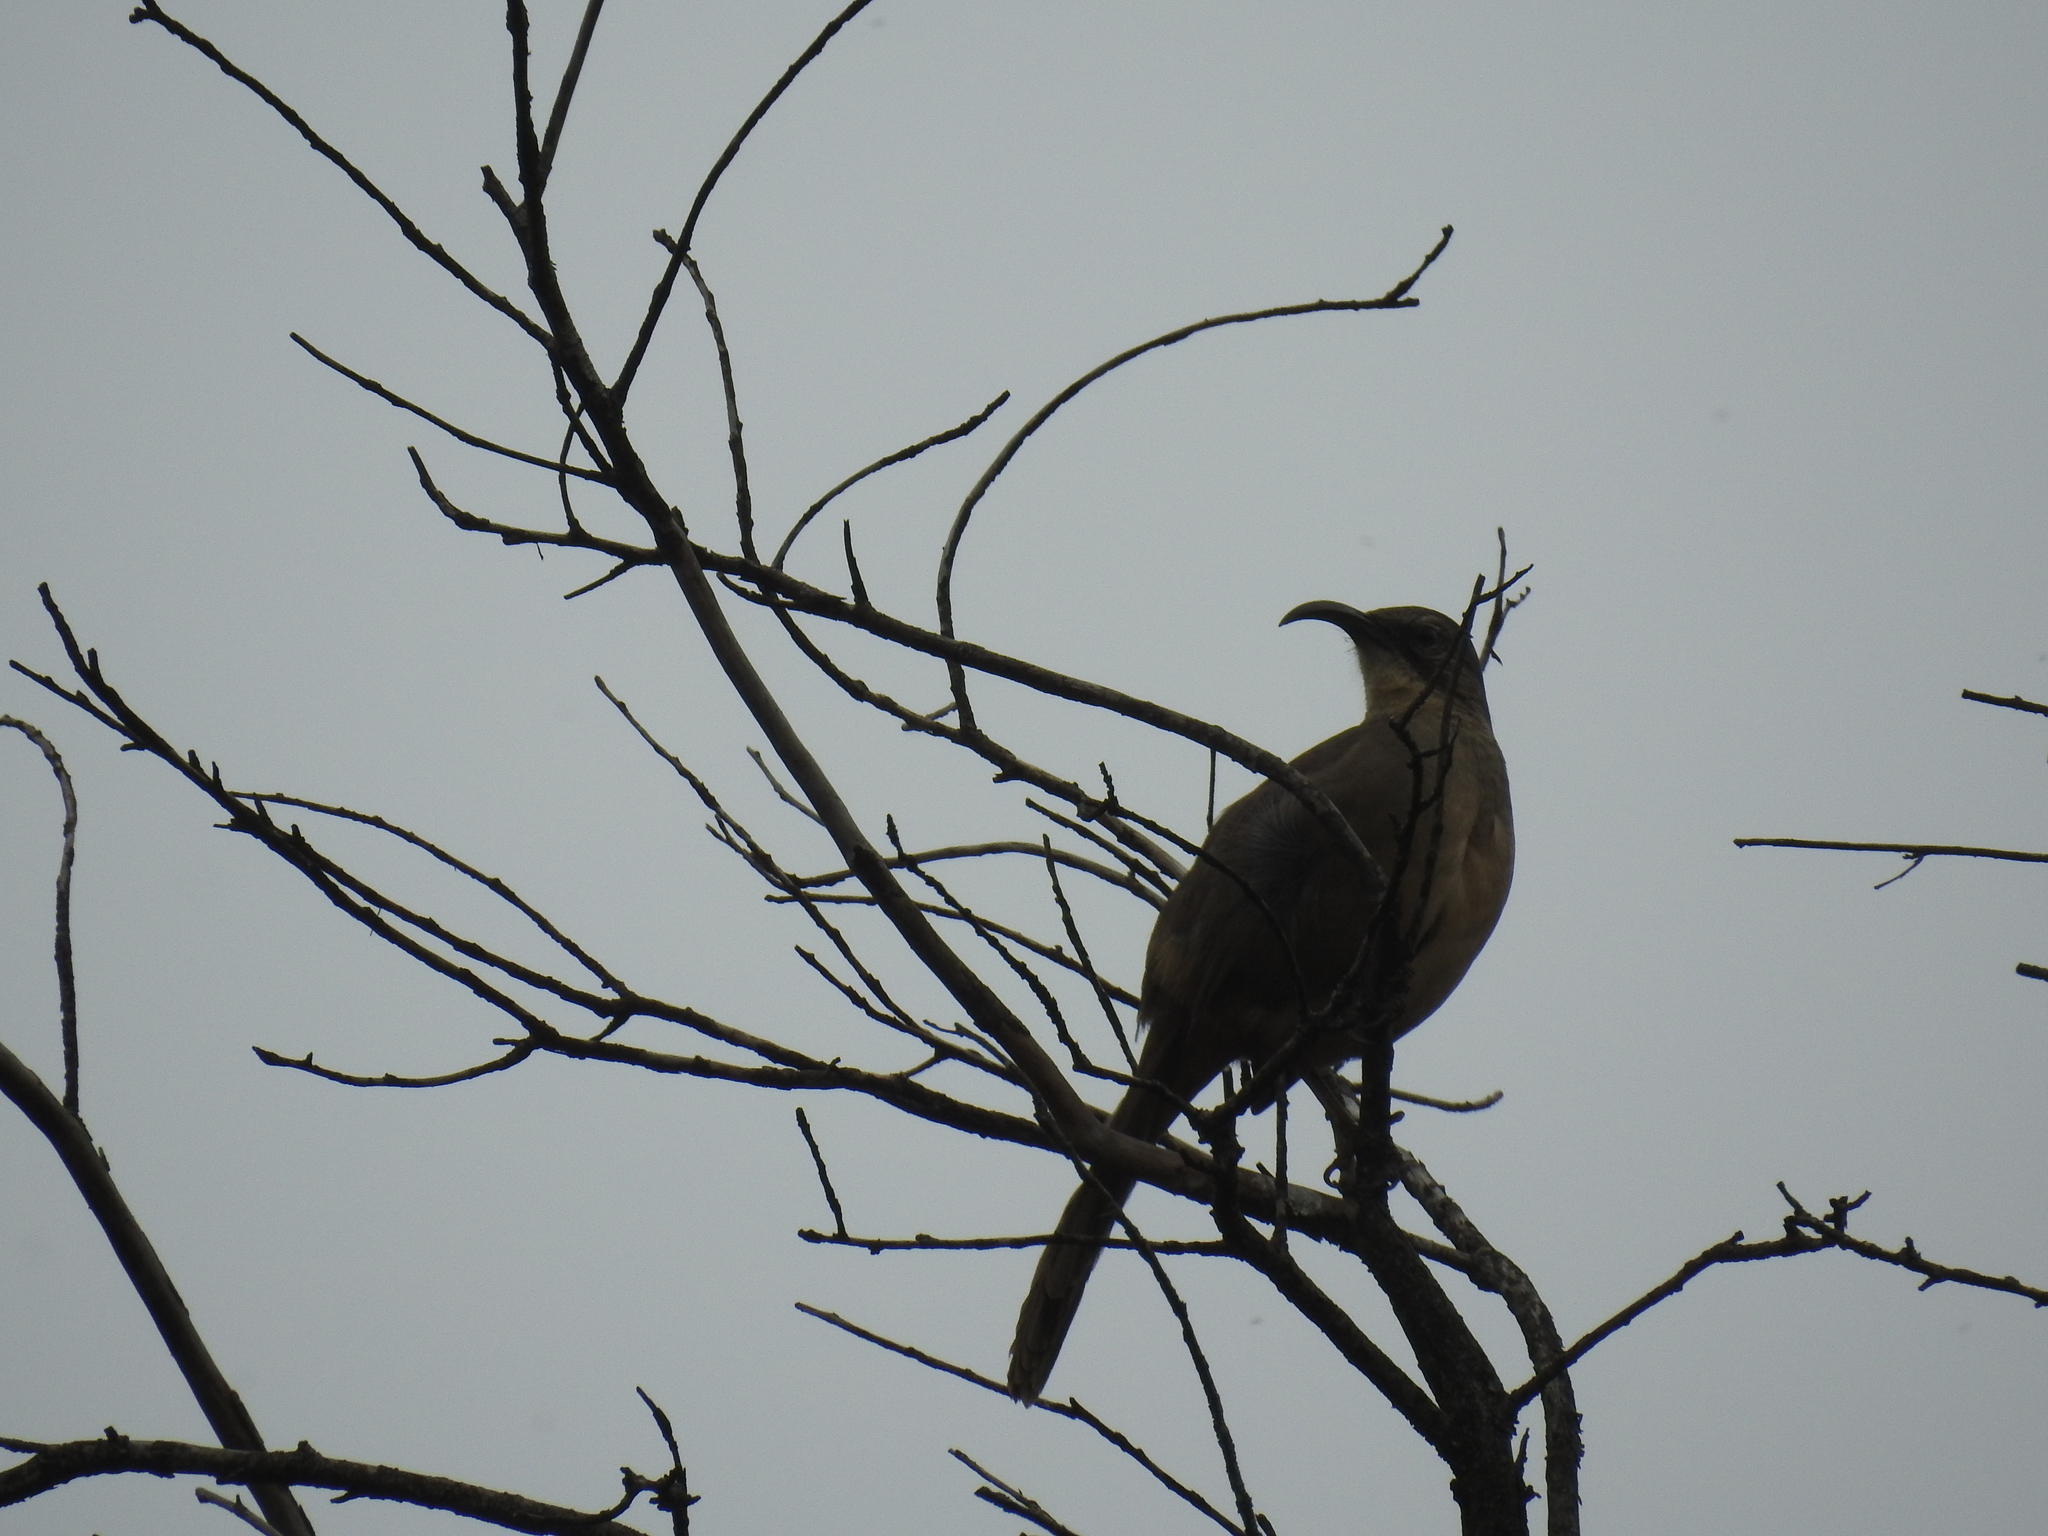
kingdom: Animalia
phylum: Chordata
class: Aves
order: Passeriformes
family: Mimidae
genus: Toxostoma
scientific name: Toxostoma redivivum
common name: California thrasher
